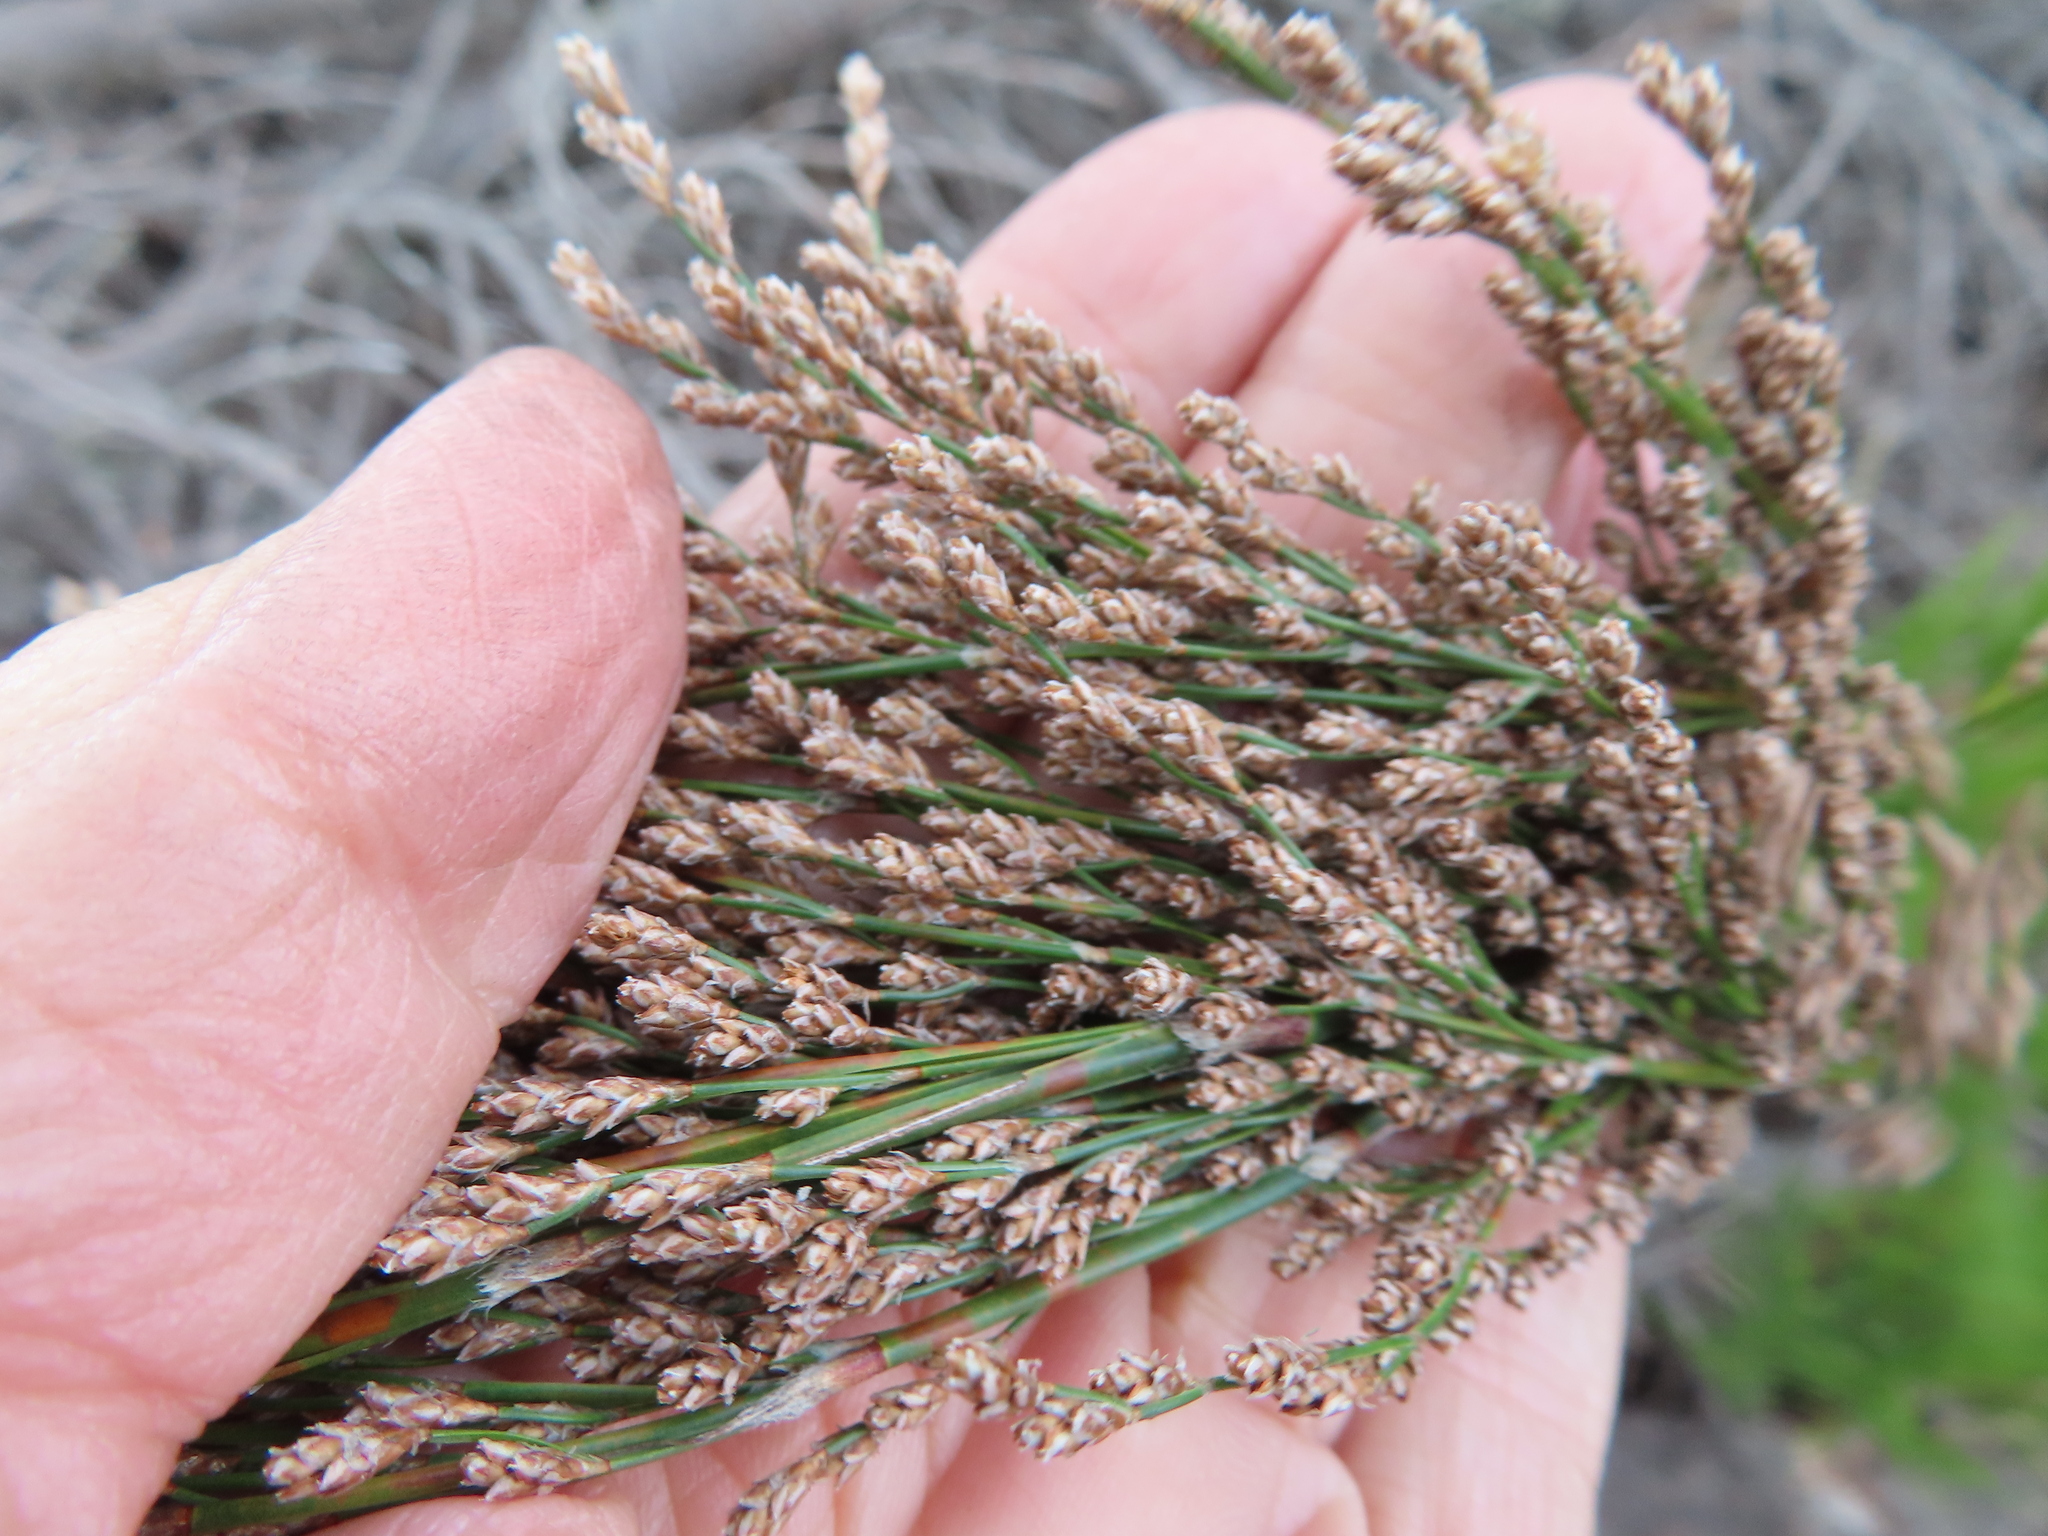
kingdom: Plantae
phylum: Tracheophyta
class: Liliopsida
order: Poales
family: Restionaceae
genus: Restio
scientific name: Restio paniculatus
